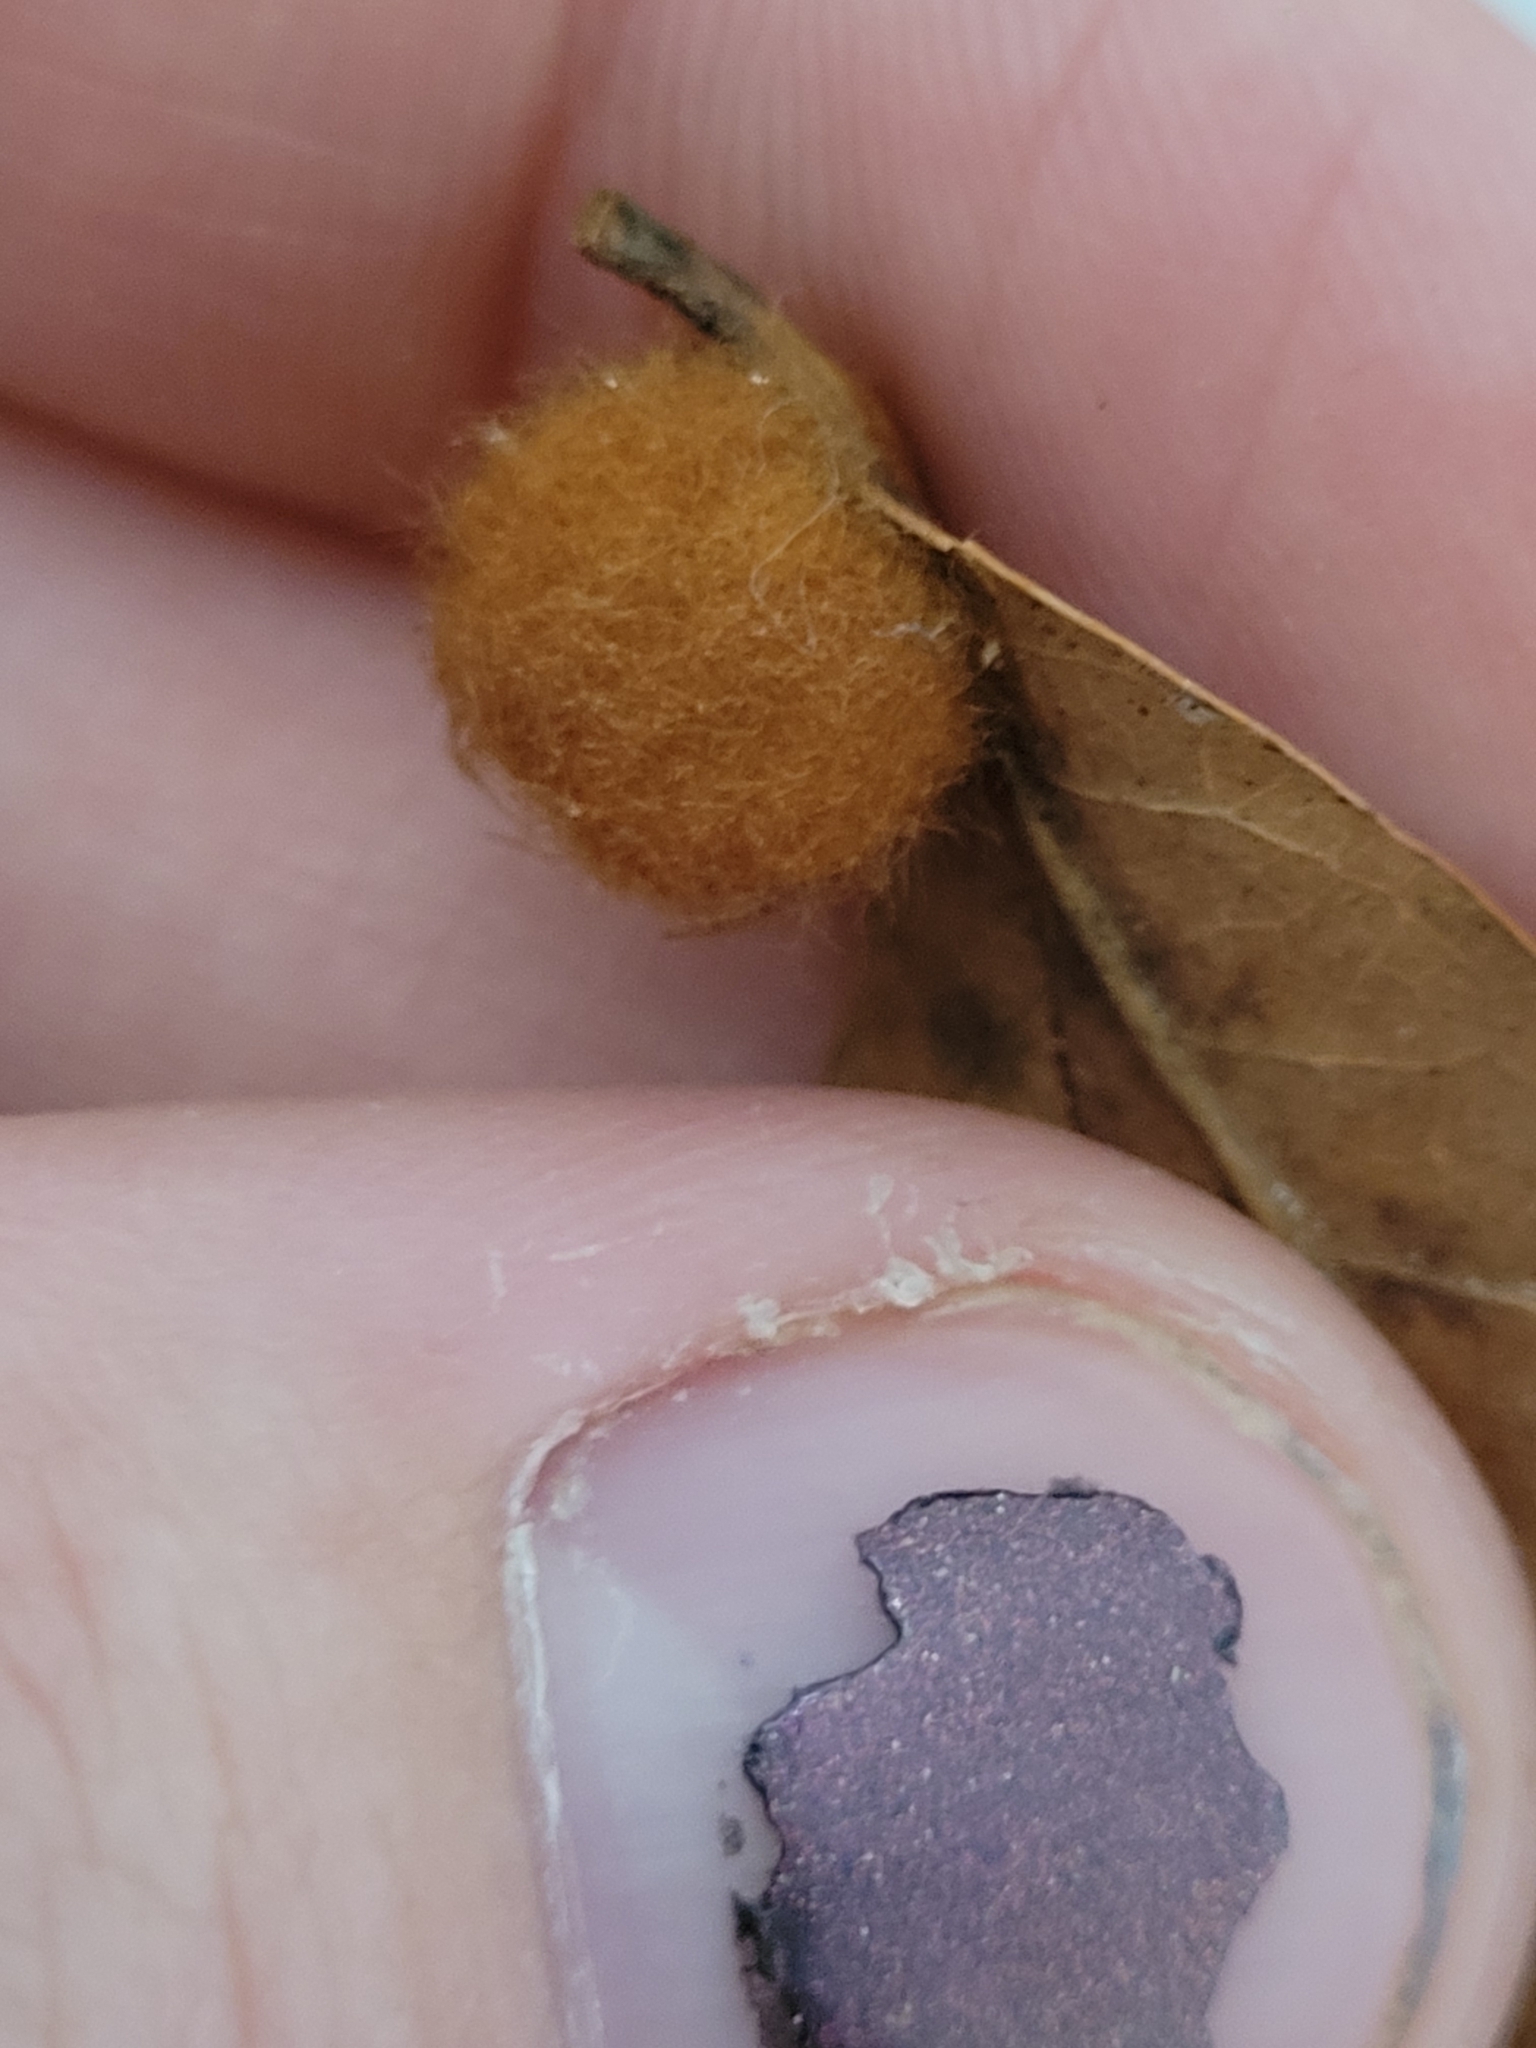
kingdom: Animalia
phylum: Arthropoda
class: Insecta
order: Hymenoptera
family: Cynipidae
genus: Andricus
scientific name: Andricus Druon pattoni
